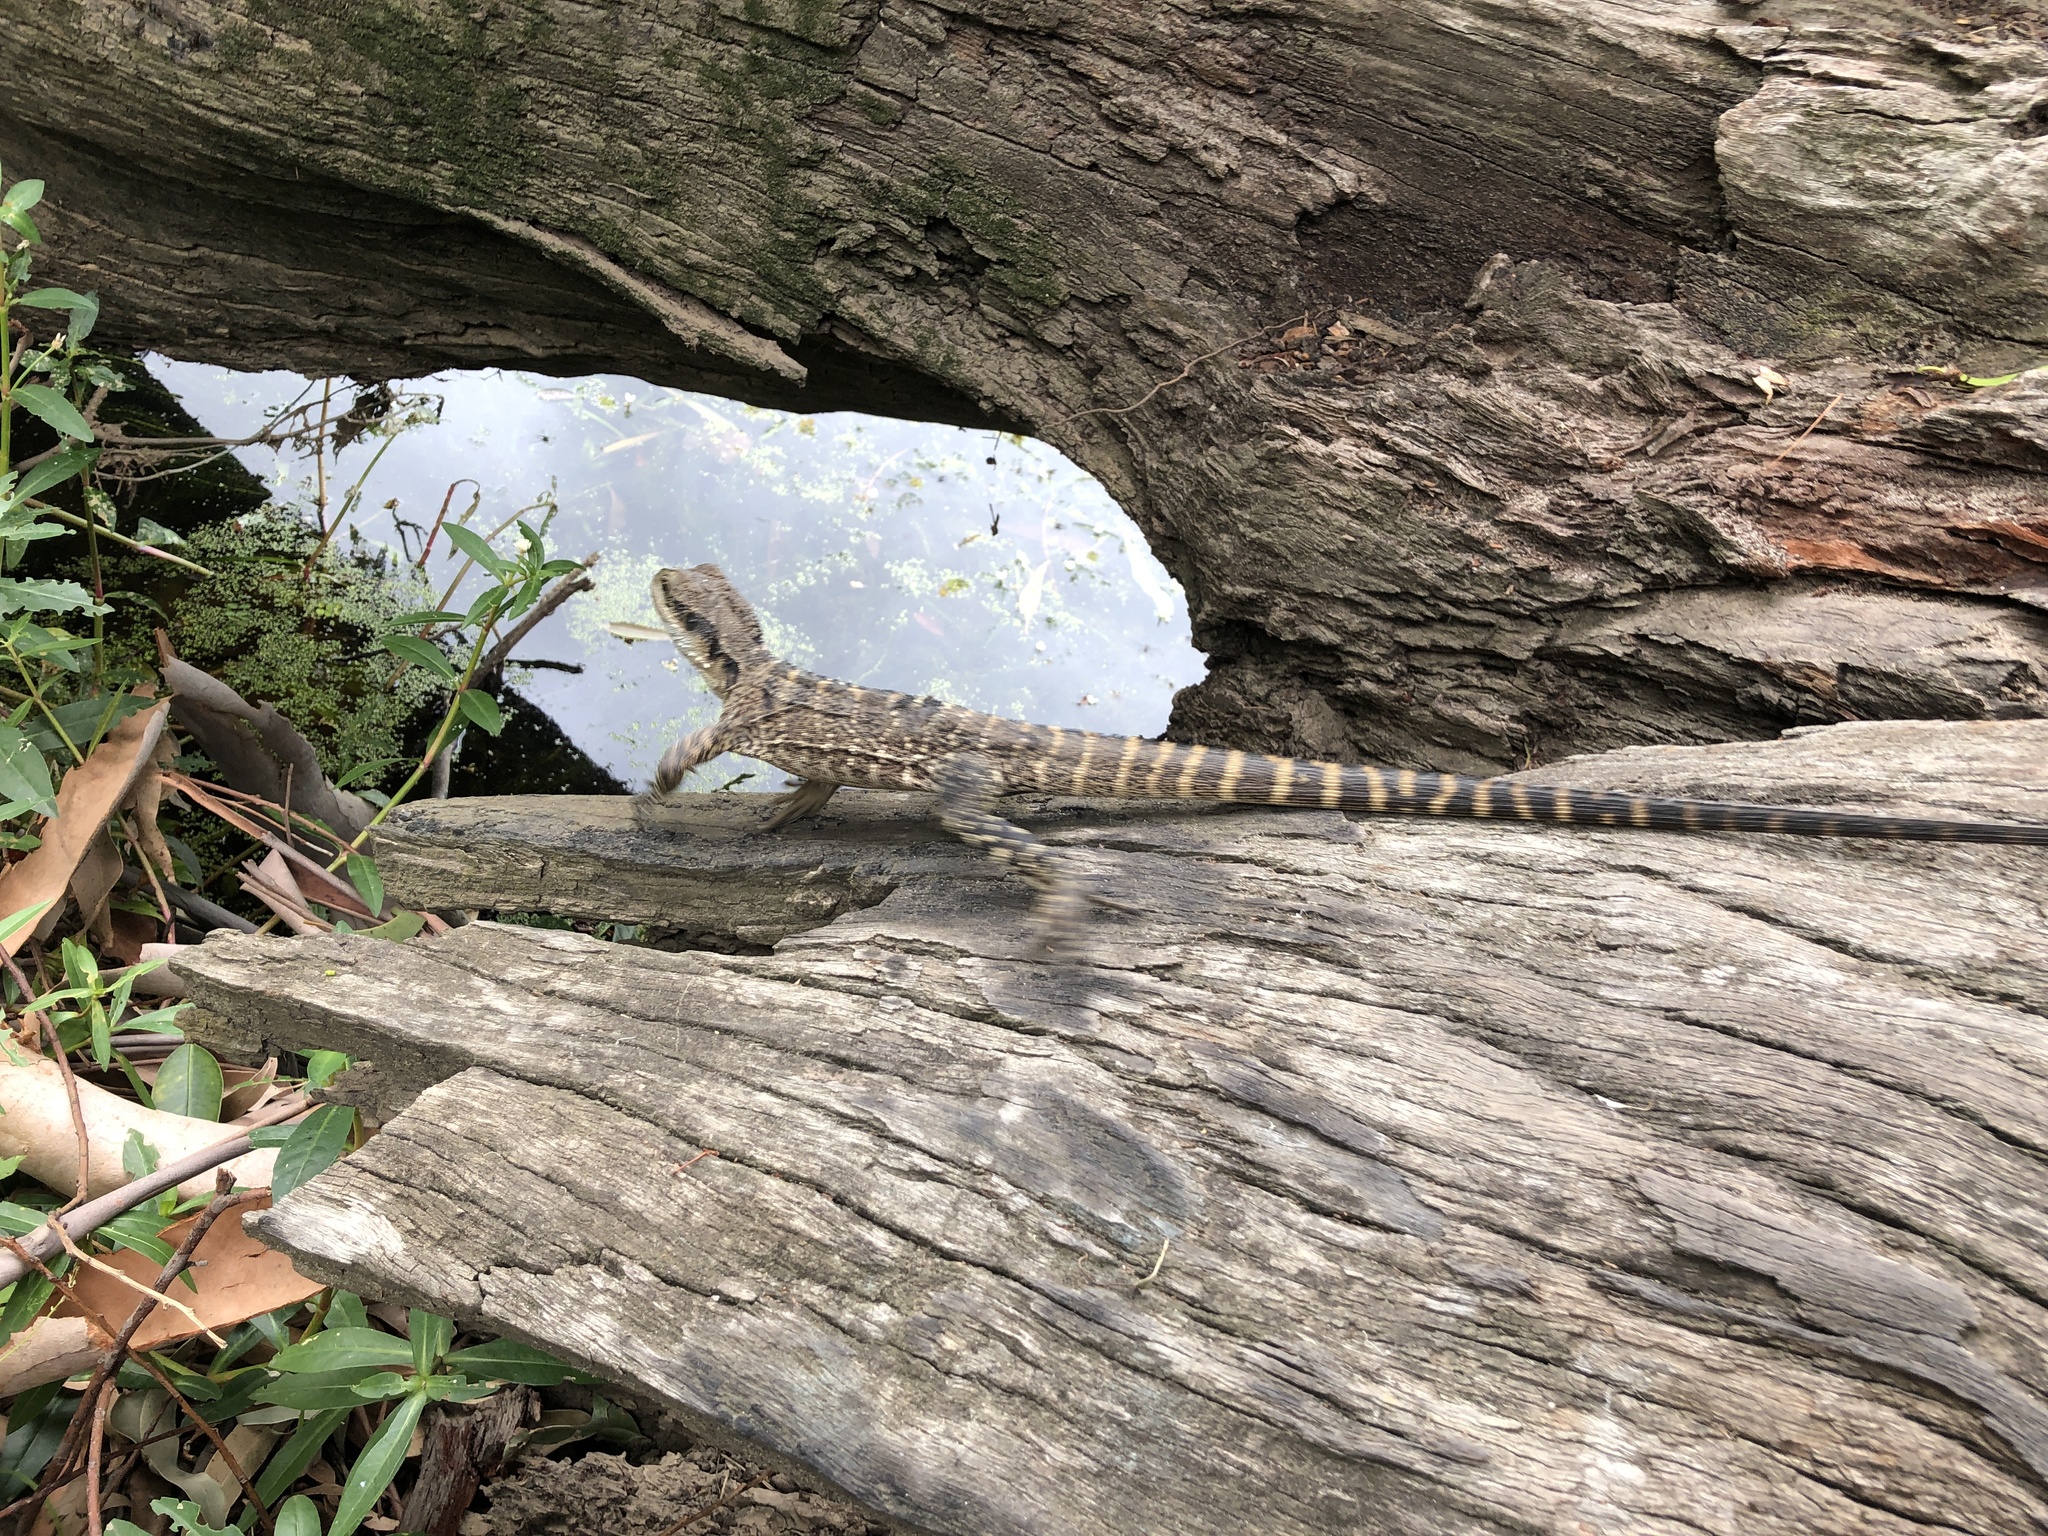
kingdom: Animalia
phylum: Chordata
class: Squamata
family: Agamidae
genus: Intellagama
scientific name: Intellagama lesueurii
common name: Eastern water dragon
